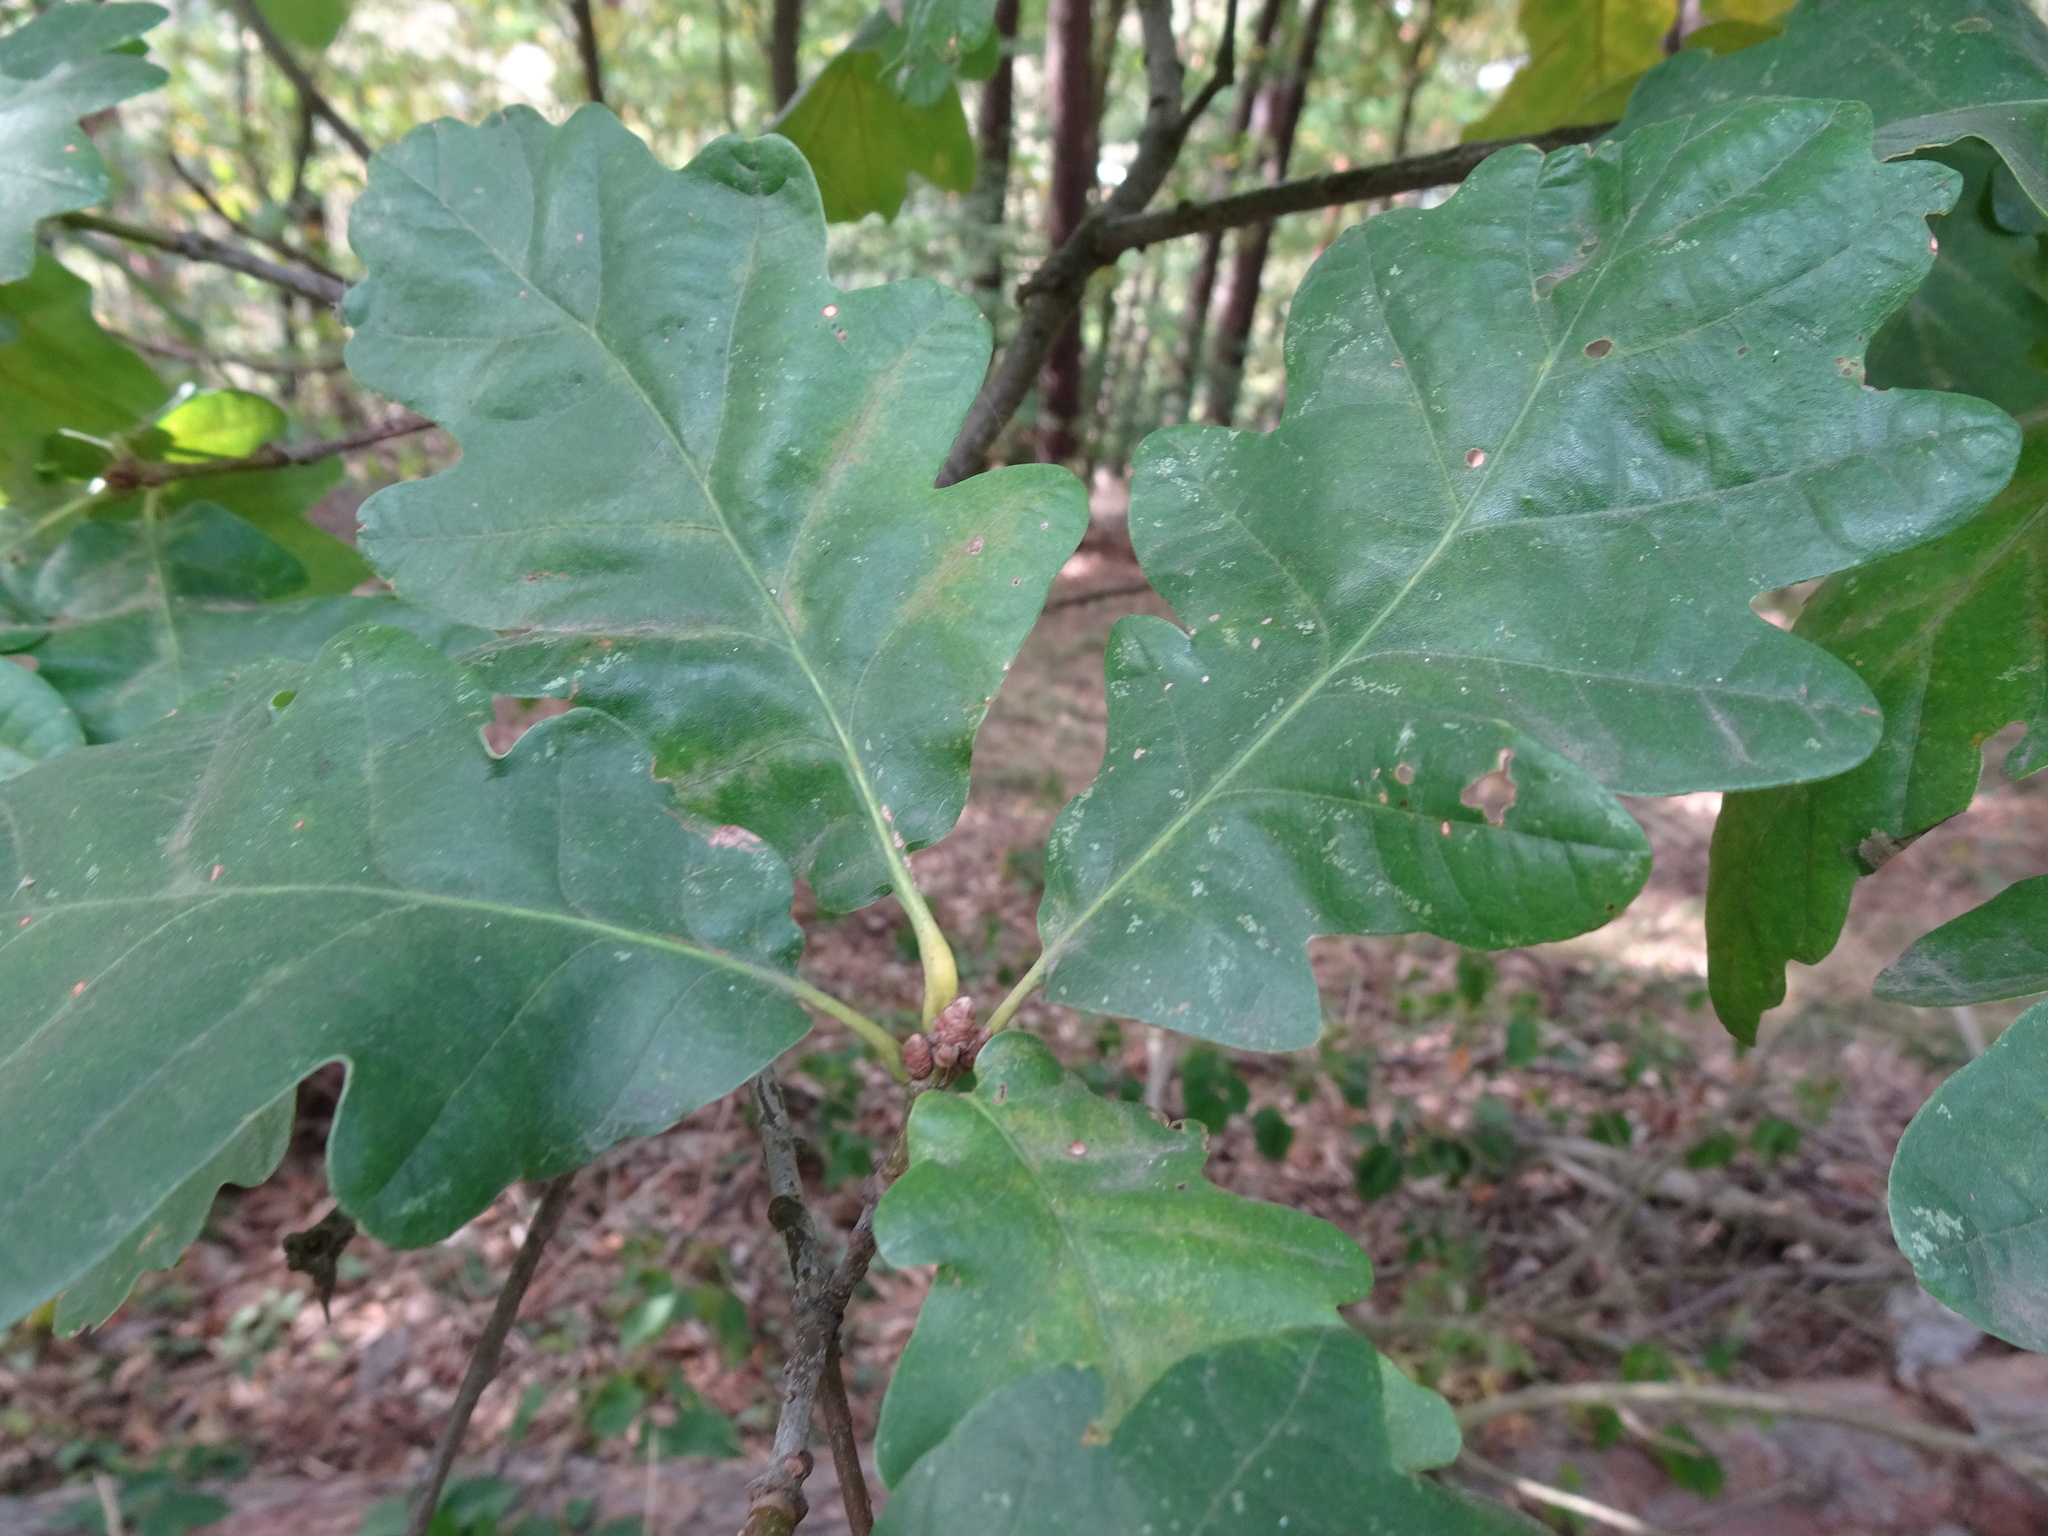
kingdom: Plantae
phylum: Tracheophyta
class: Magnoliopsida
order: Fagales
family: Fagaceae
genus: Quercus
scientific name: Quercus petraea
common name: Sessile oak
